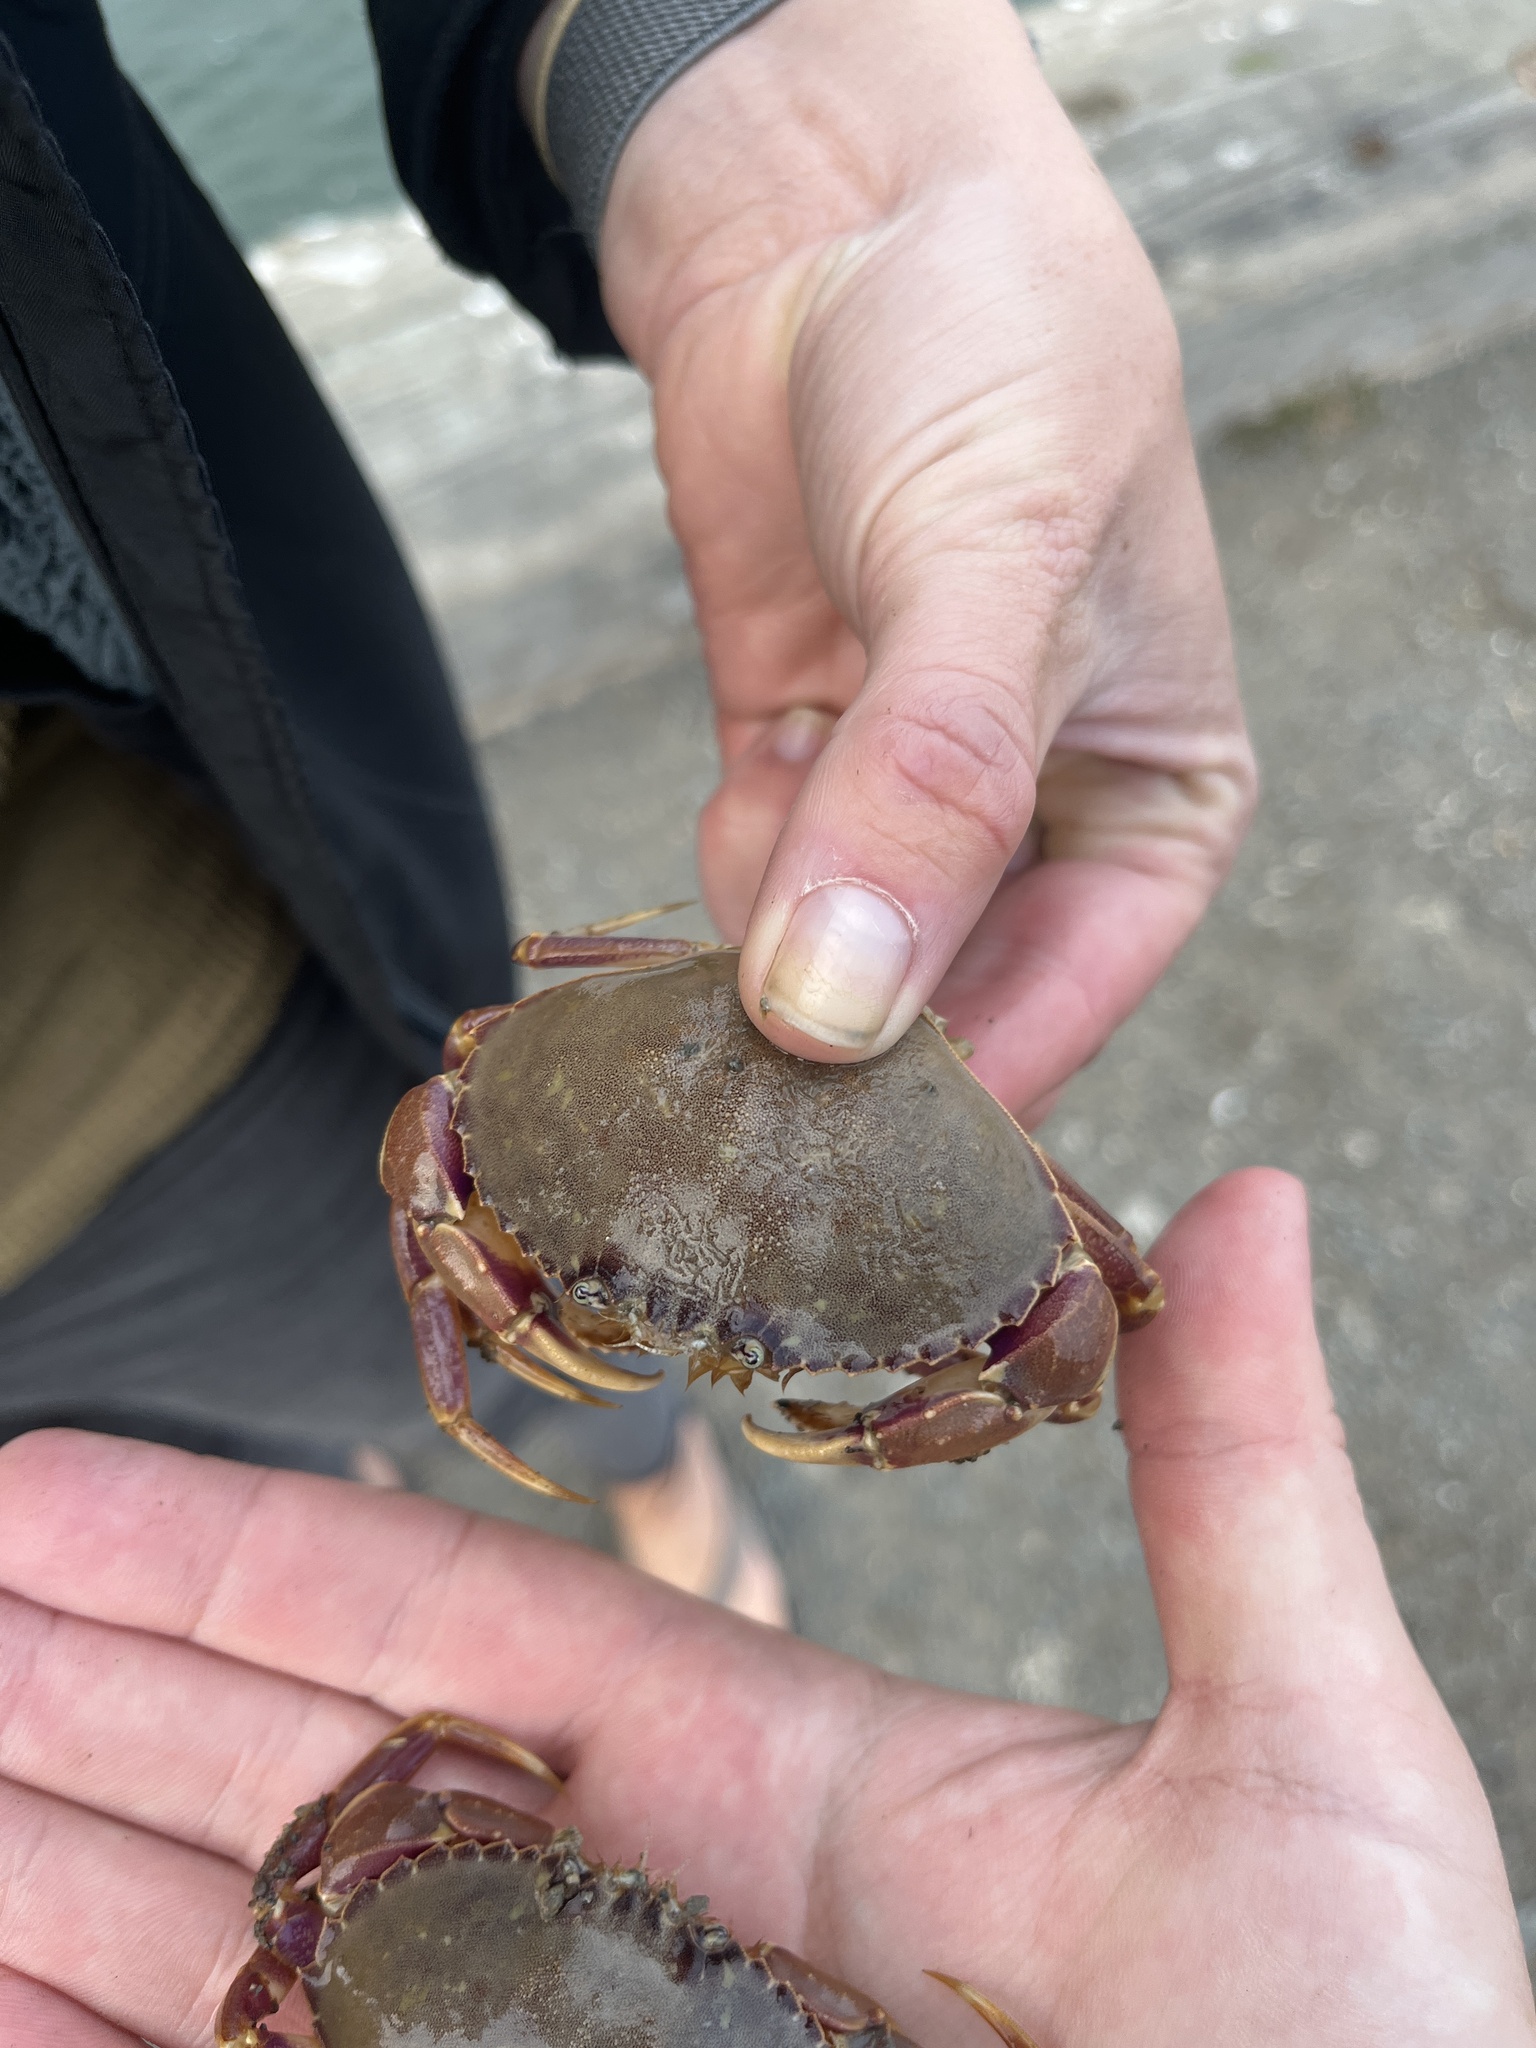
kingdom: Animalia
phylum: Arthropoda
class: Malacostraca
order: Decapoda
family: Cancridae
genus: Metacarcinus
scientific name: Metacarcinus gracilis
